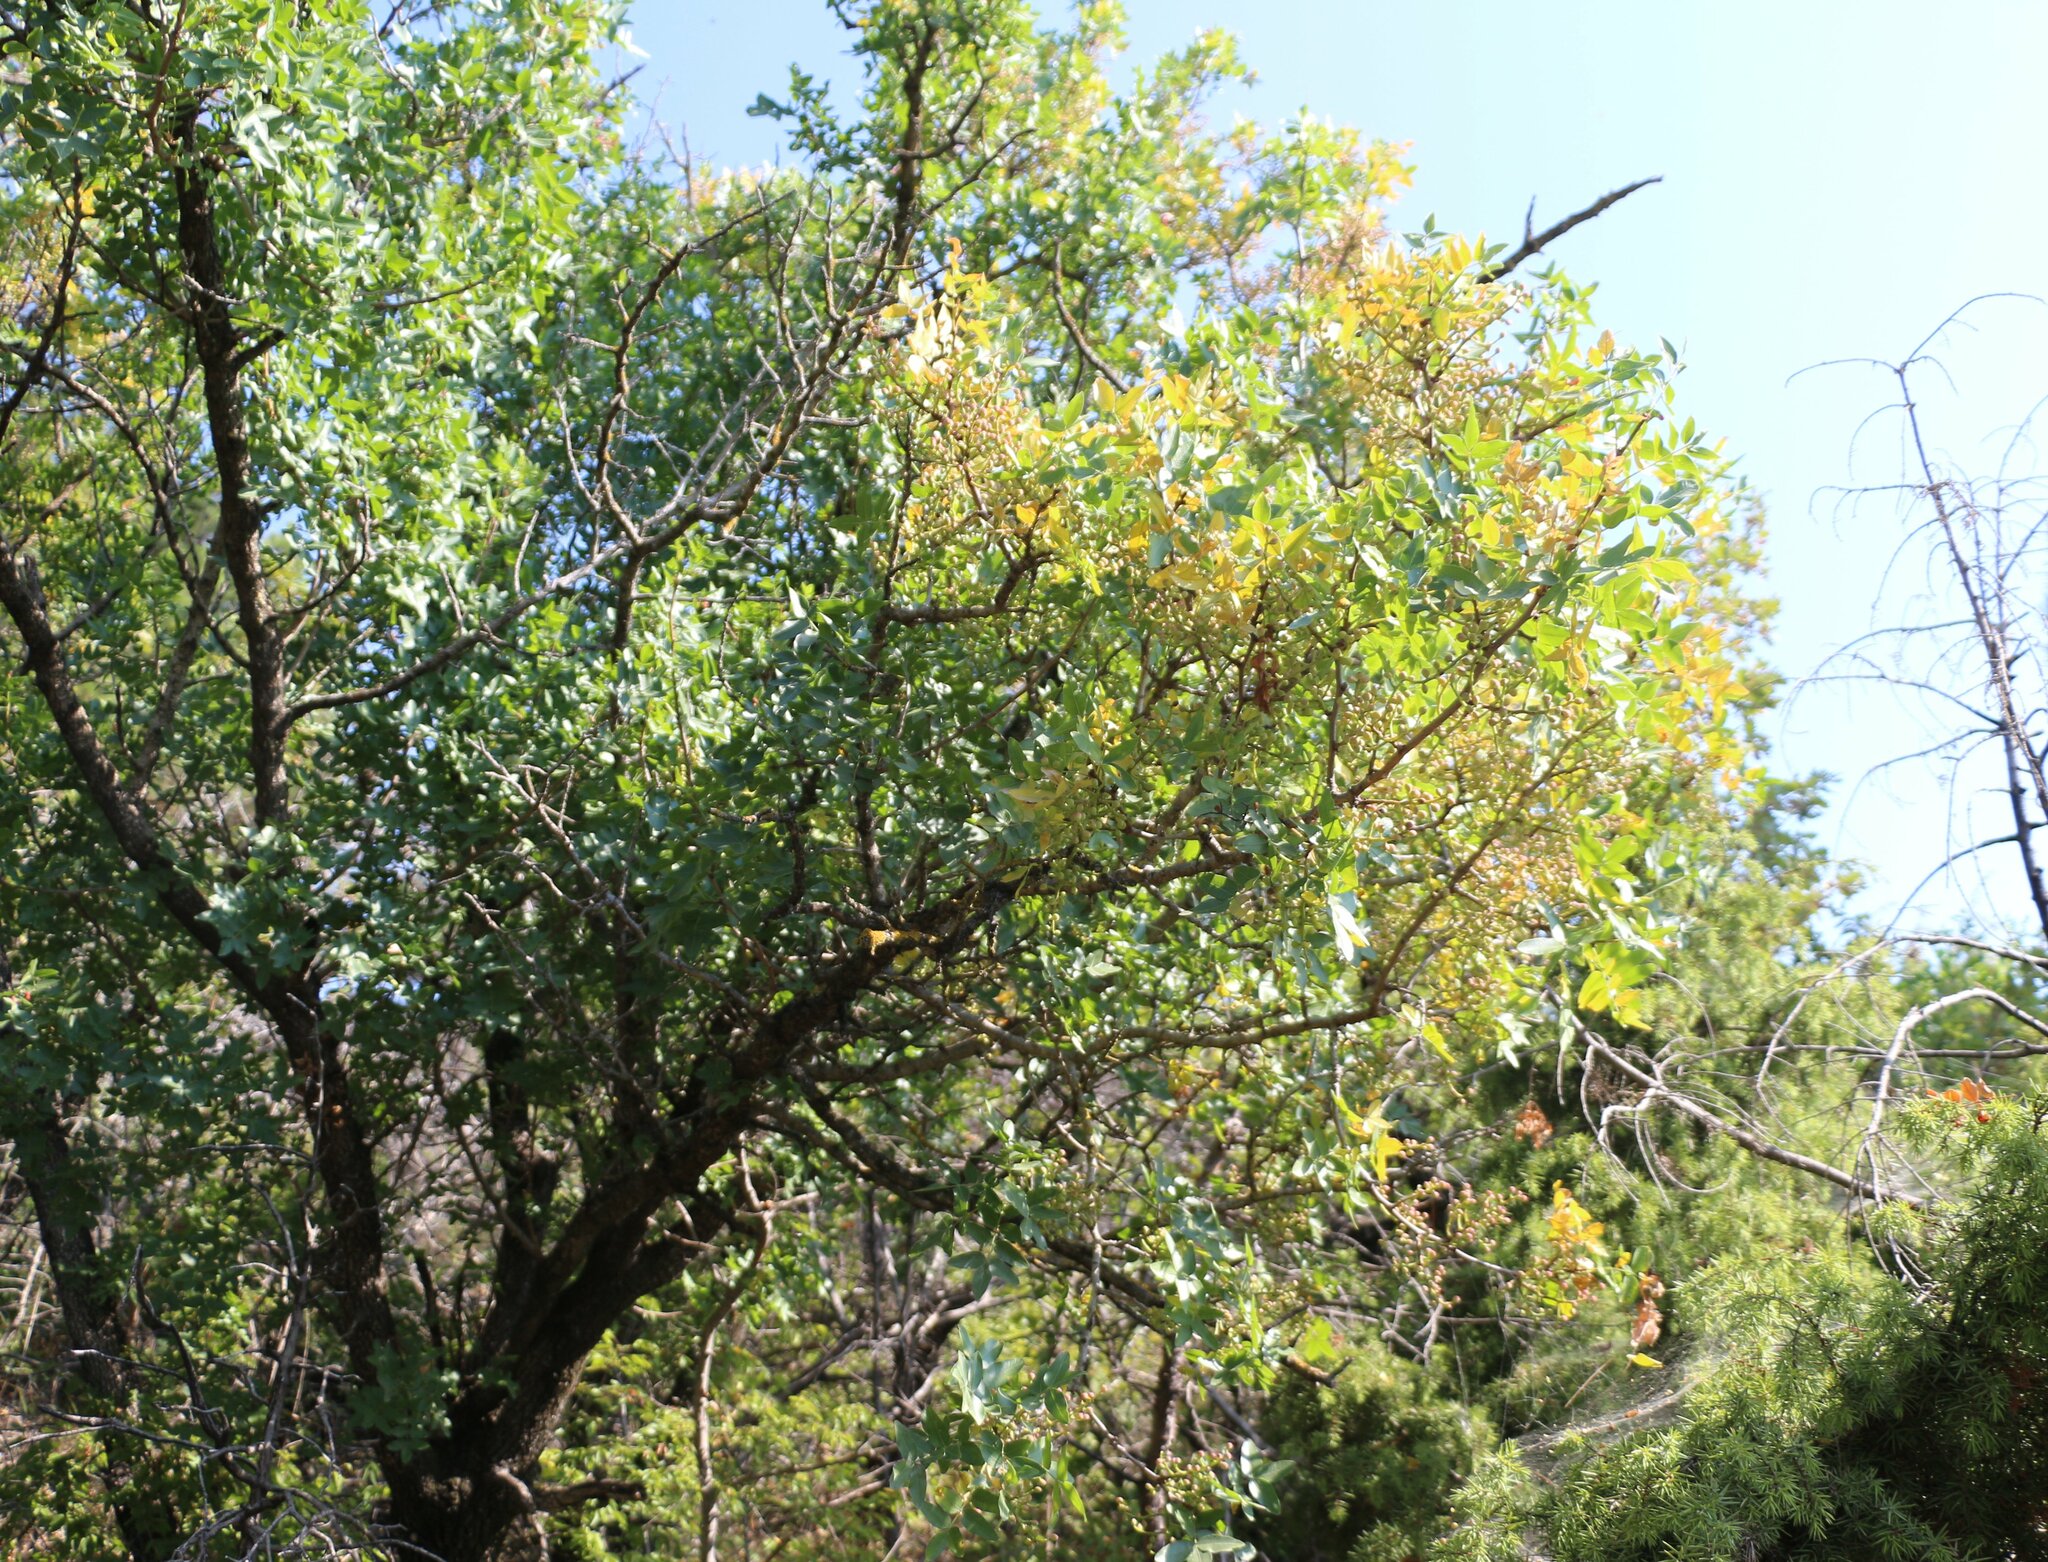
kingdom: Plantae
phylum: Tracheophyta
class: Magnoliopsida
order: Sapindales
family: Anacardiaceae
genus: Pistacia
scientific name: Pistacia atlantica
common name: Mt. atlas mastic tree
